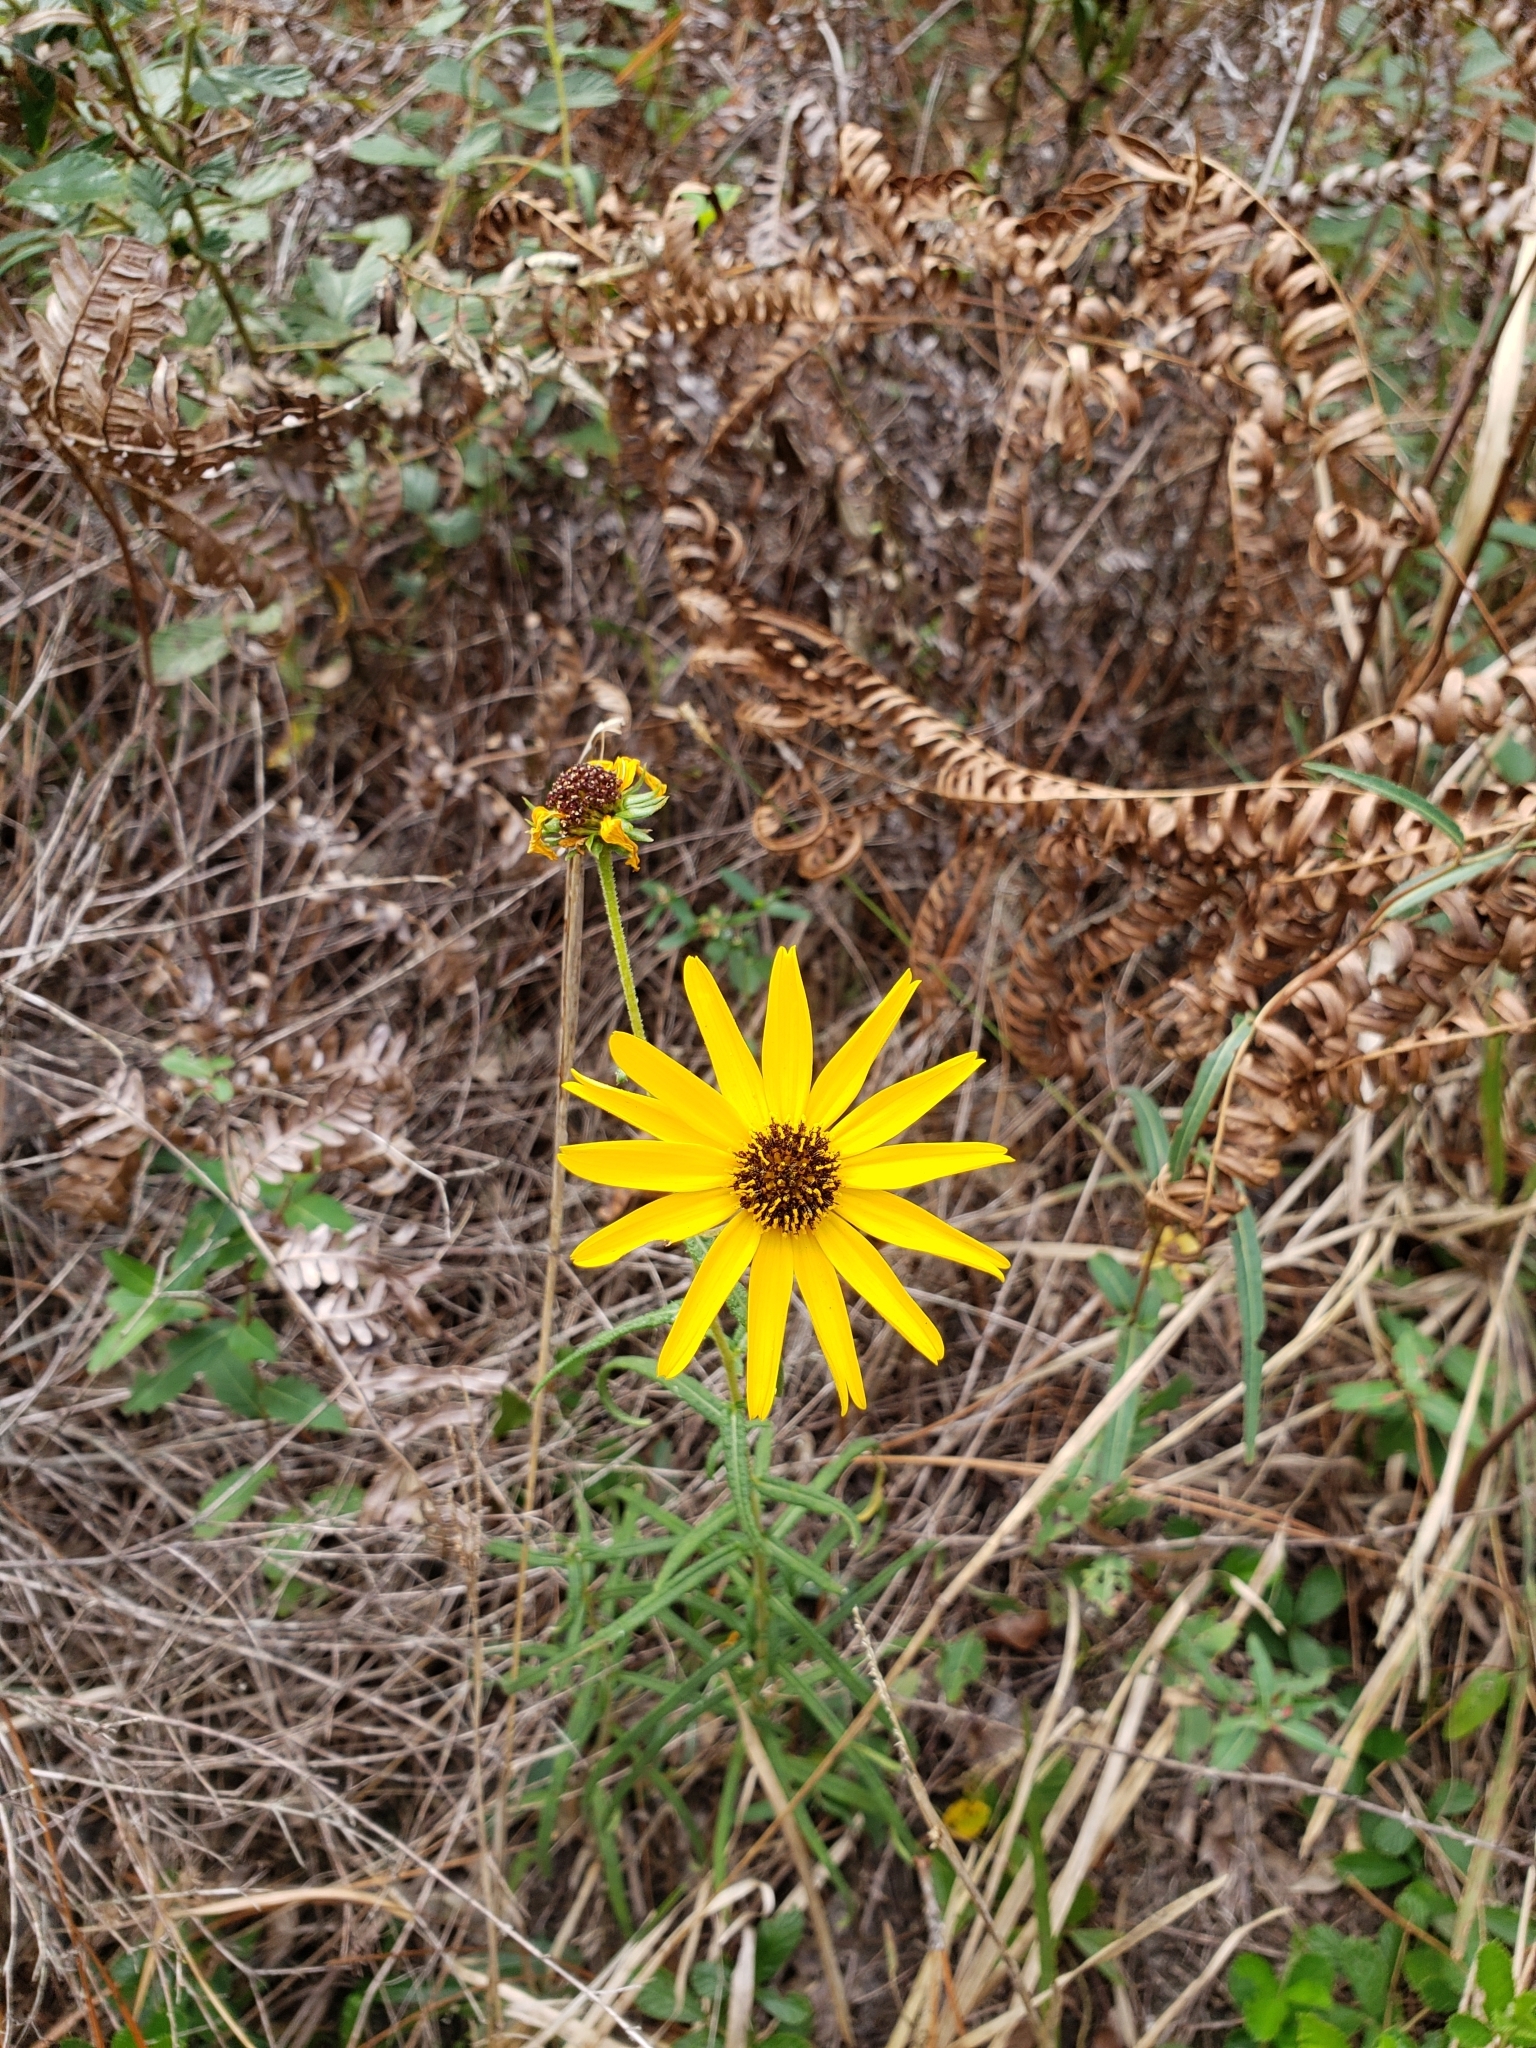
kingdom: Plantae
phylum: Tracheophyta
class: Magnoliopsida
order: Asterales
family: Asteraceae
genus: Helianthus
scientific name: Helianthus angustifolius
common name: Swamp sunflower
